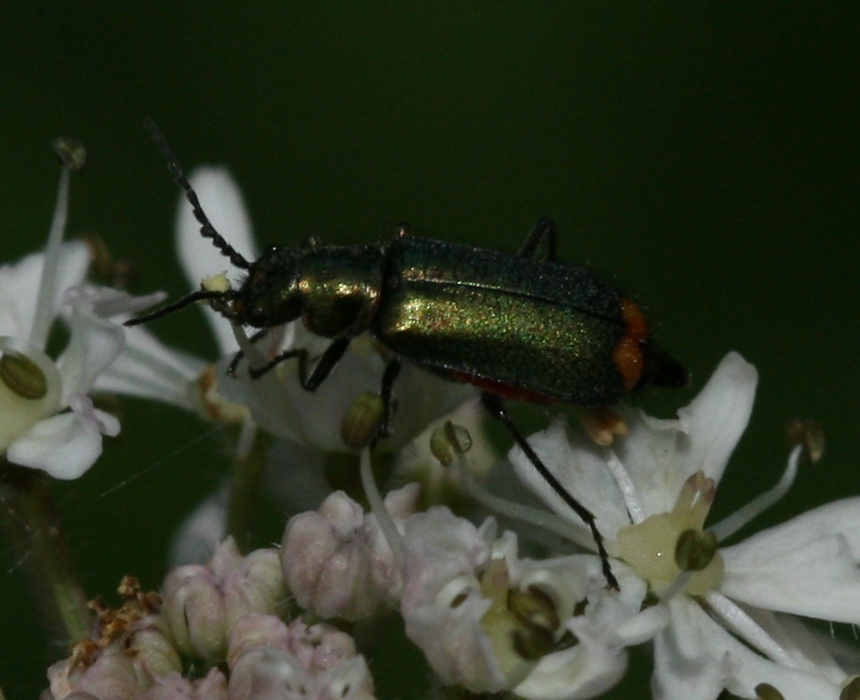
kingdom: Animalia
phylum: Arthropoda
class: Insecta
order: Coleoptera
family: Melyridae
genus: Malachius
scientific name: Malachius bipustulatus
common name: Malachite beetle
